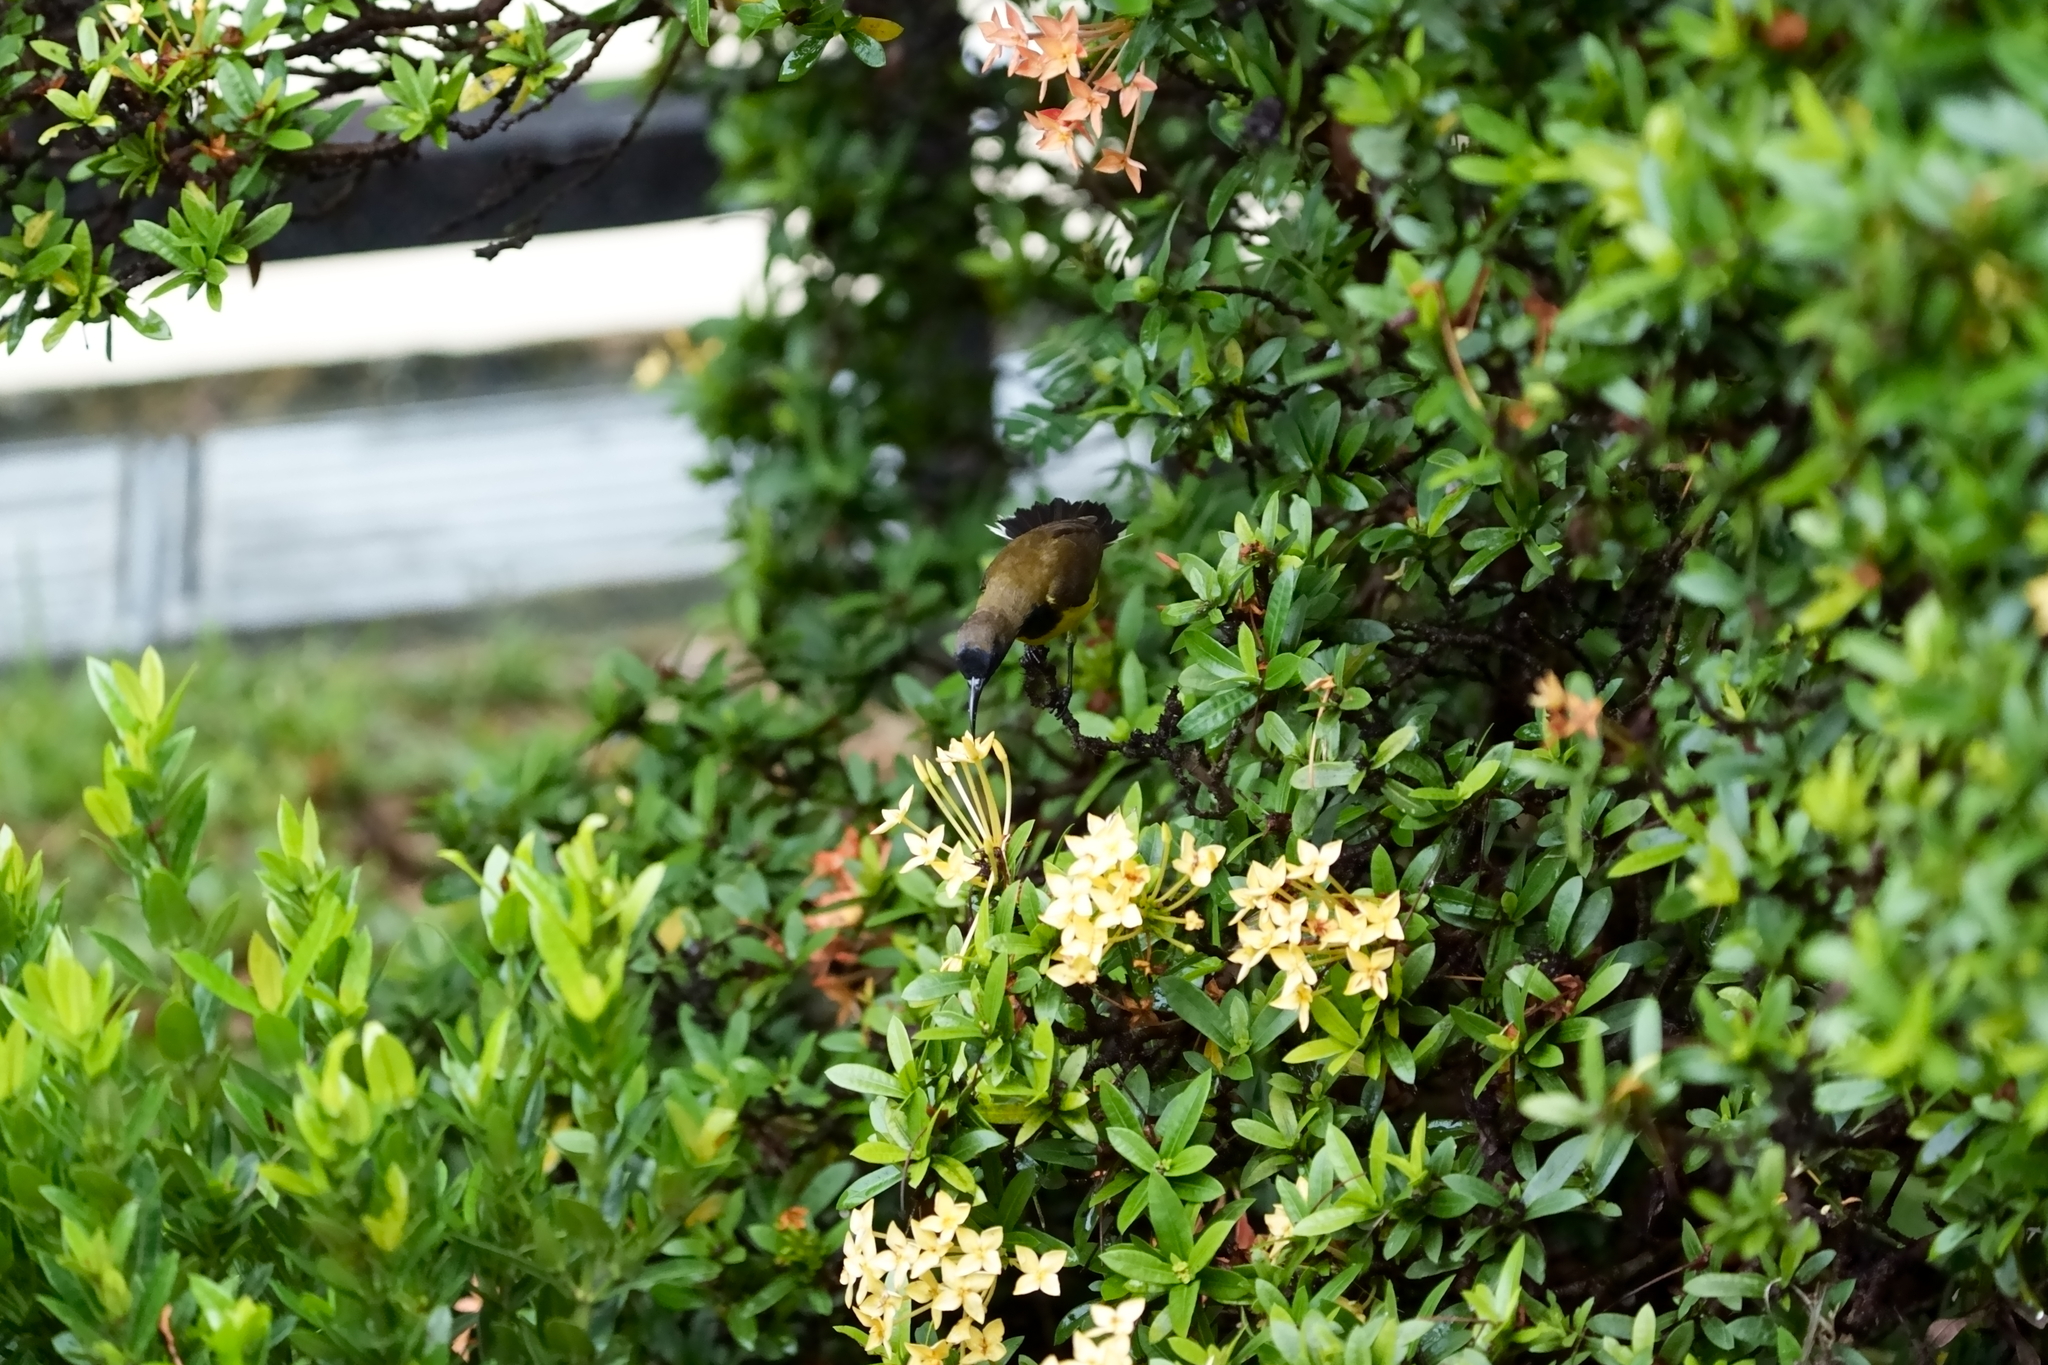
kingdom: Animalia
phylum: Chordata
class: Aves
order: Passeriformes
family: Nectariniidae
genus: Cinnyris
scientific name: Cinnyris
